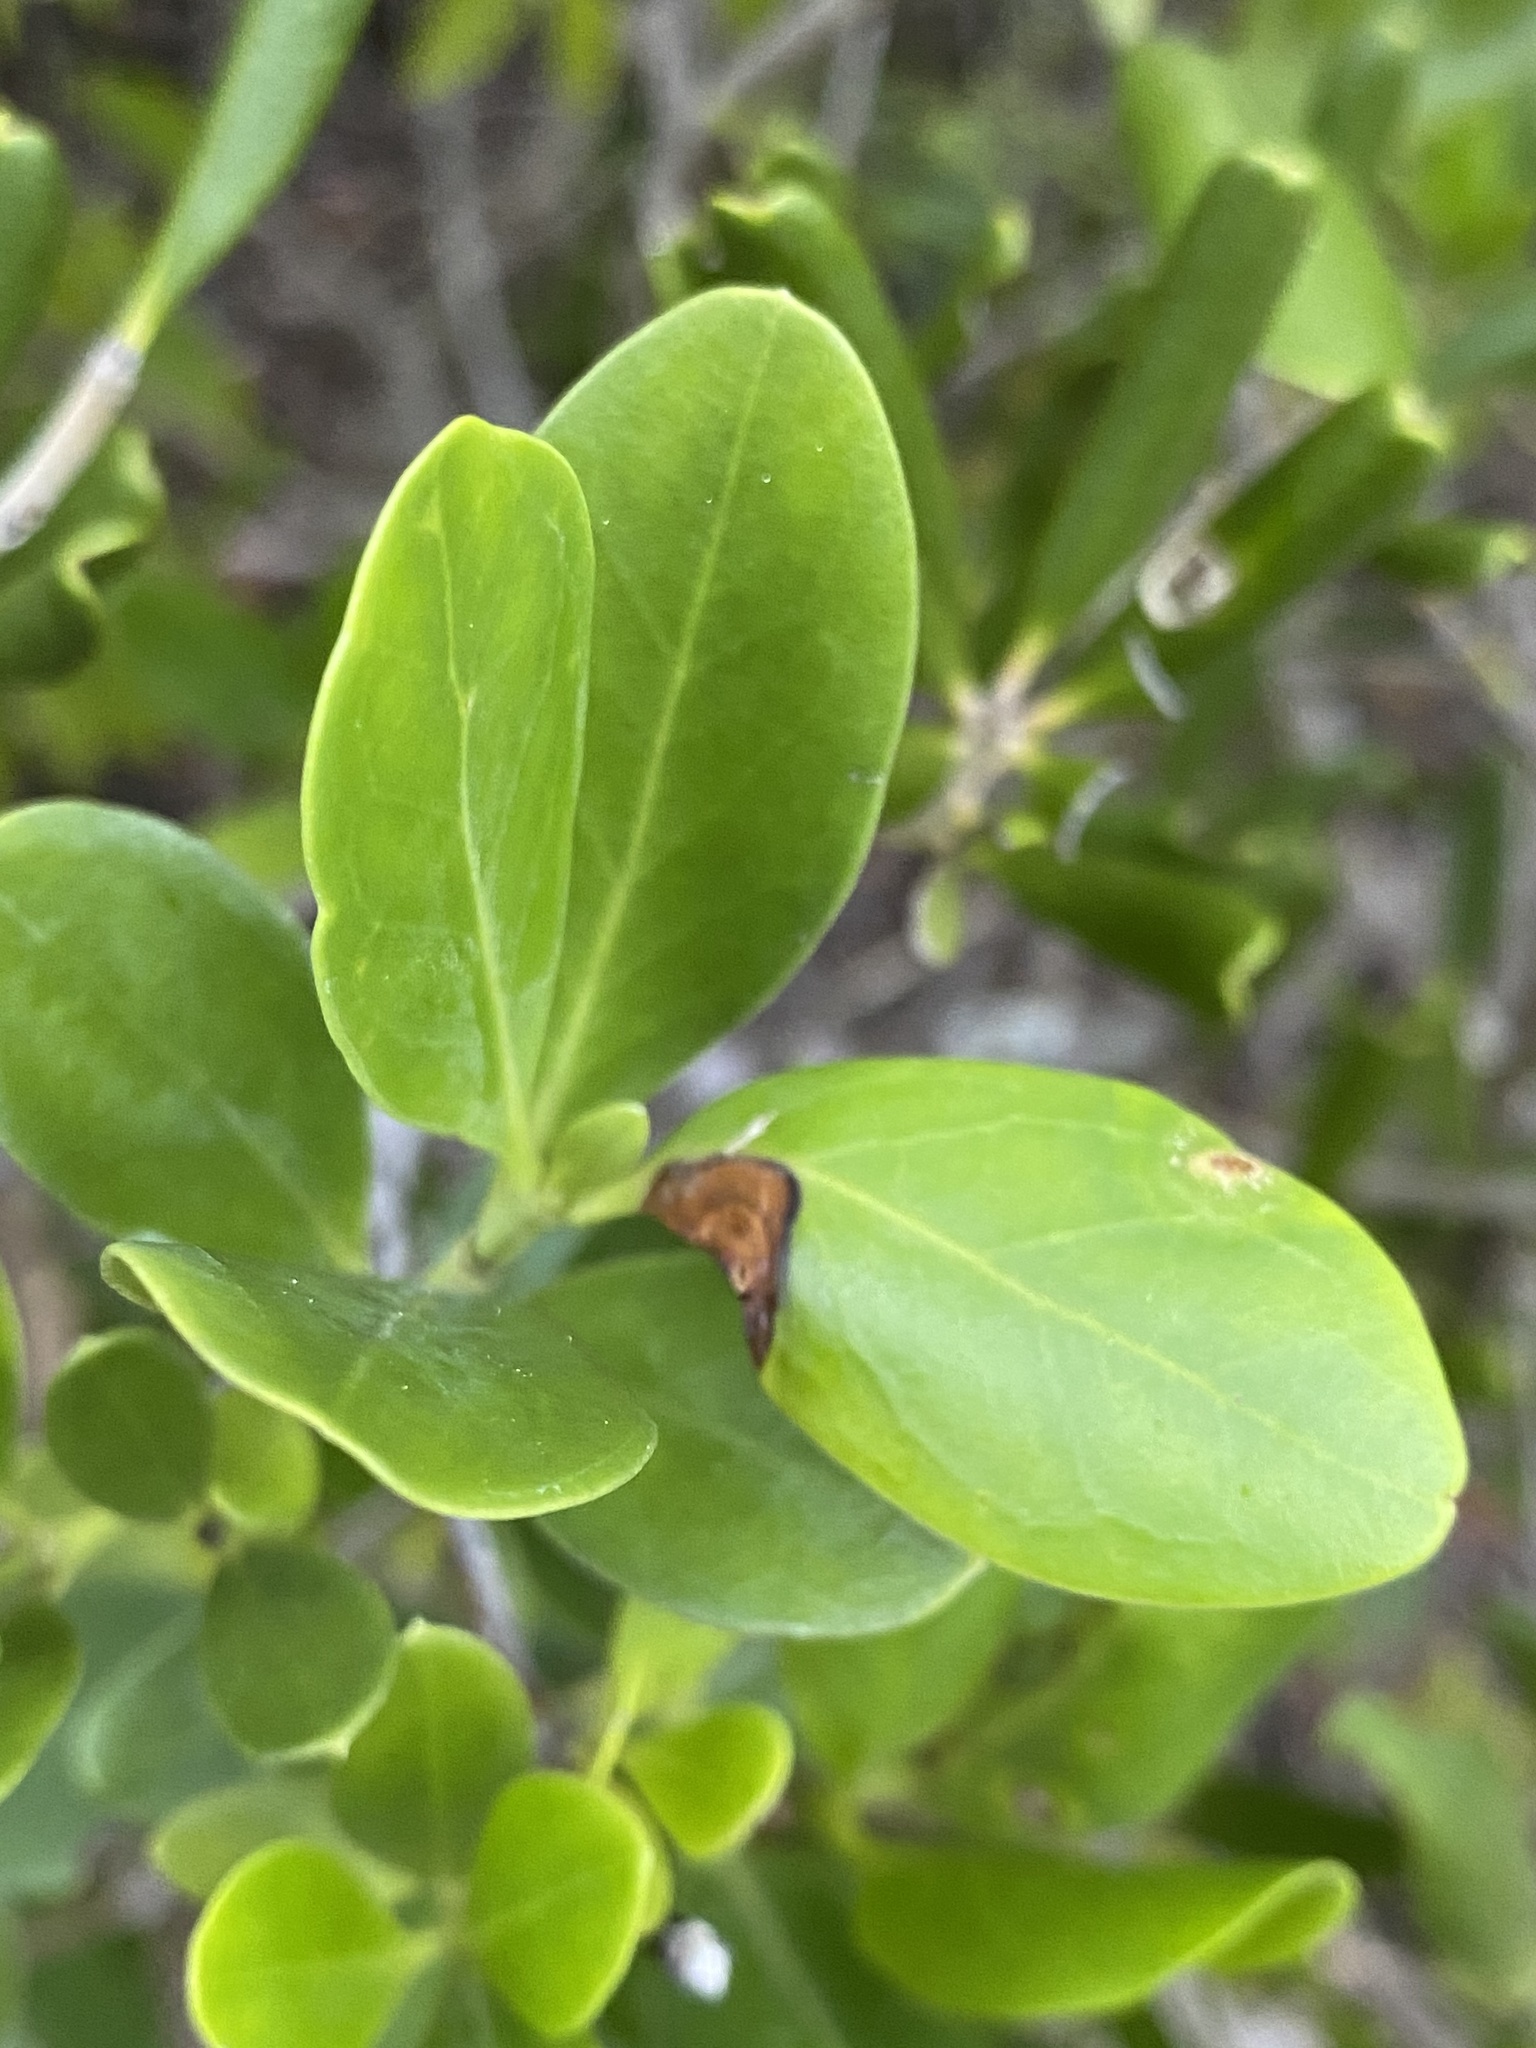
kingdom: Plantae
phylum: Tracheophyta
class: Magnoliopsida
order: Gentianales
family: Rubiaceae
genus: Erithalis
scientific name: Erithalis fruticosa
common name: Candlewood
